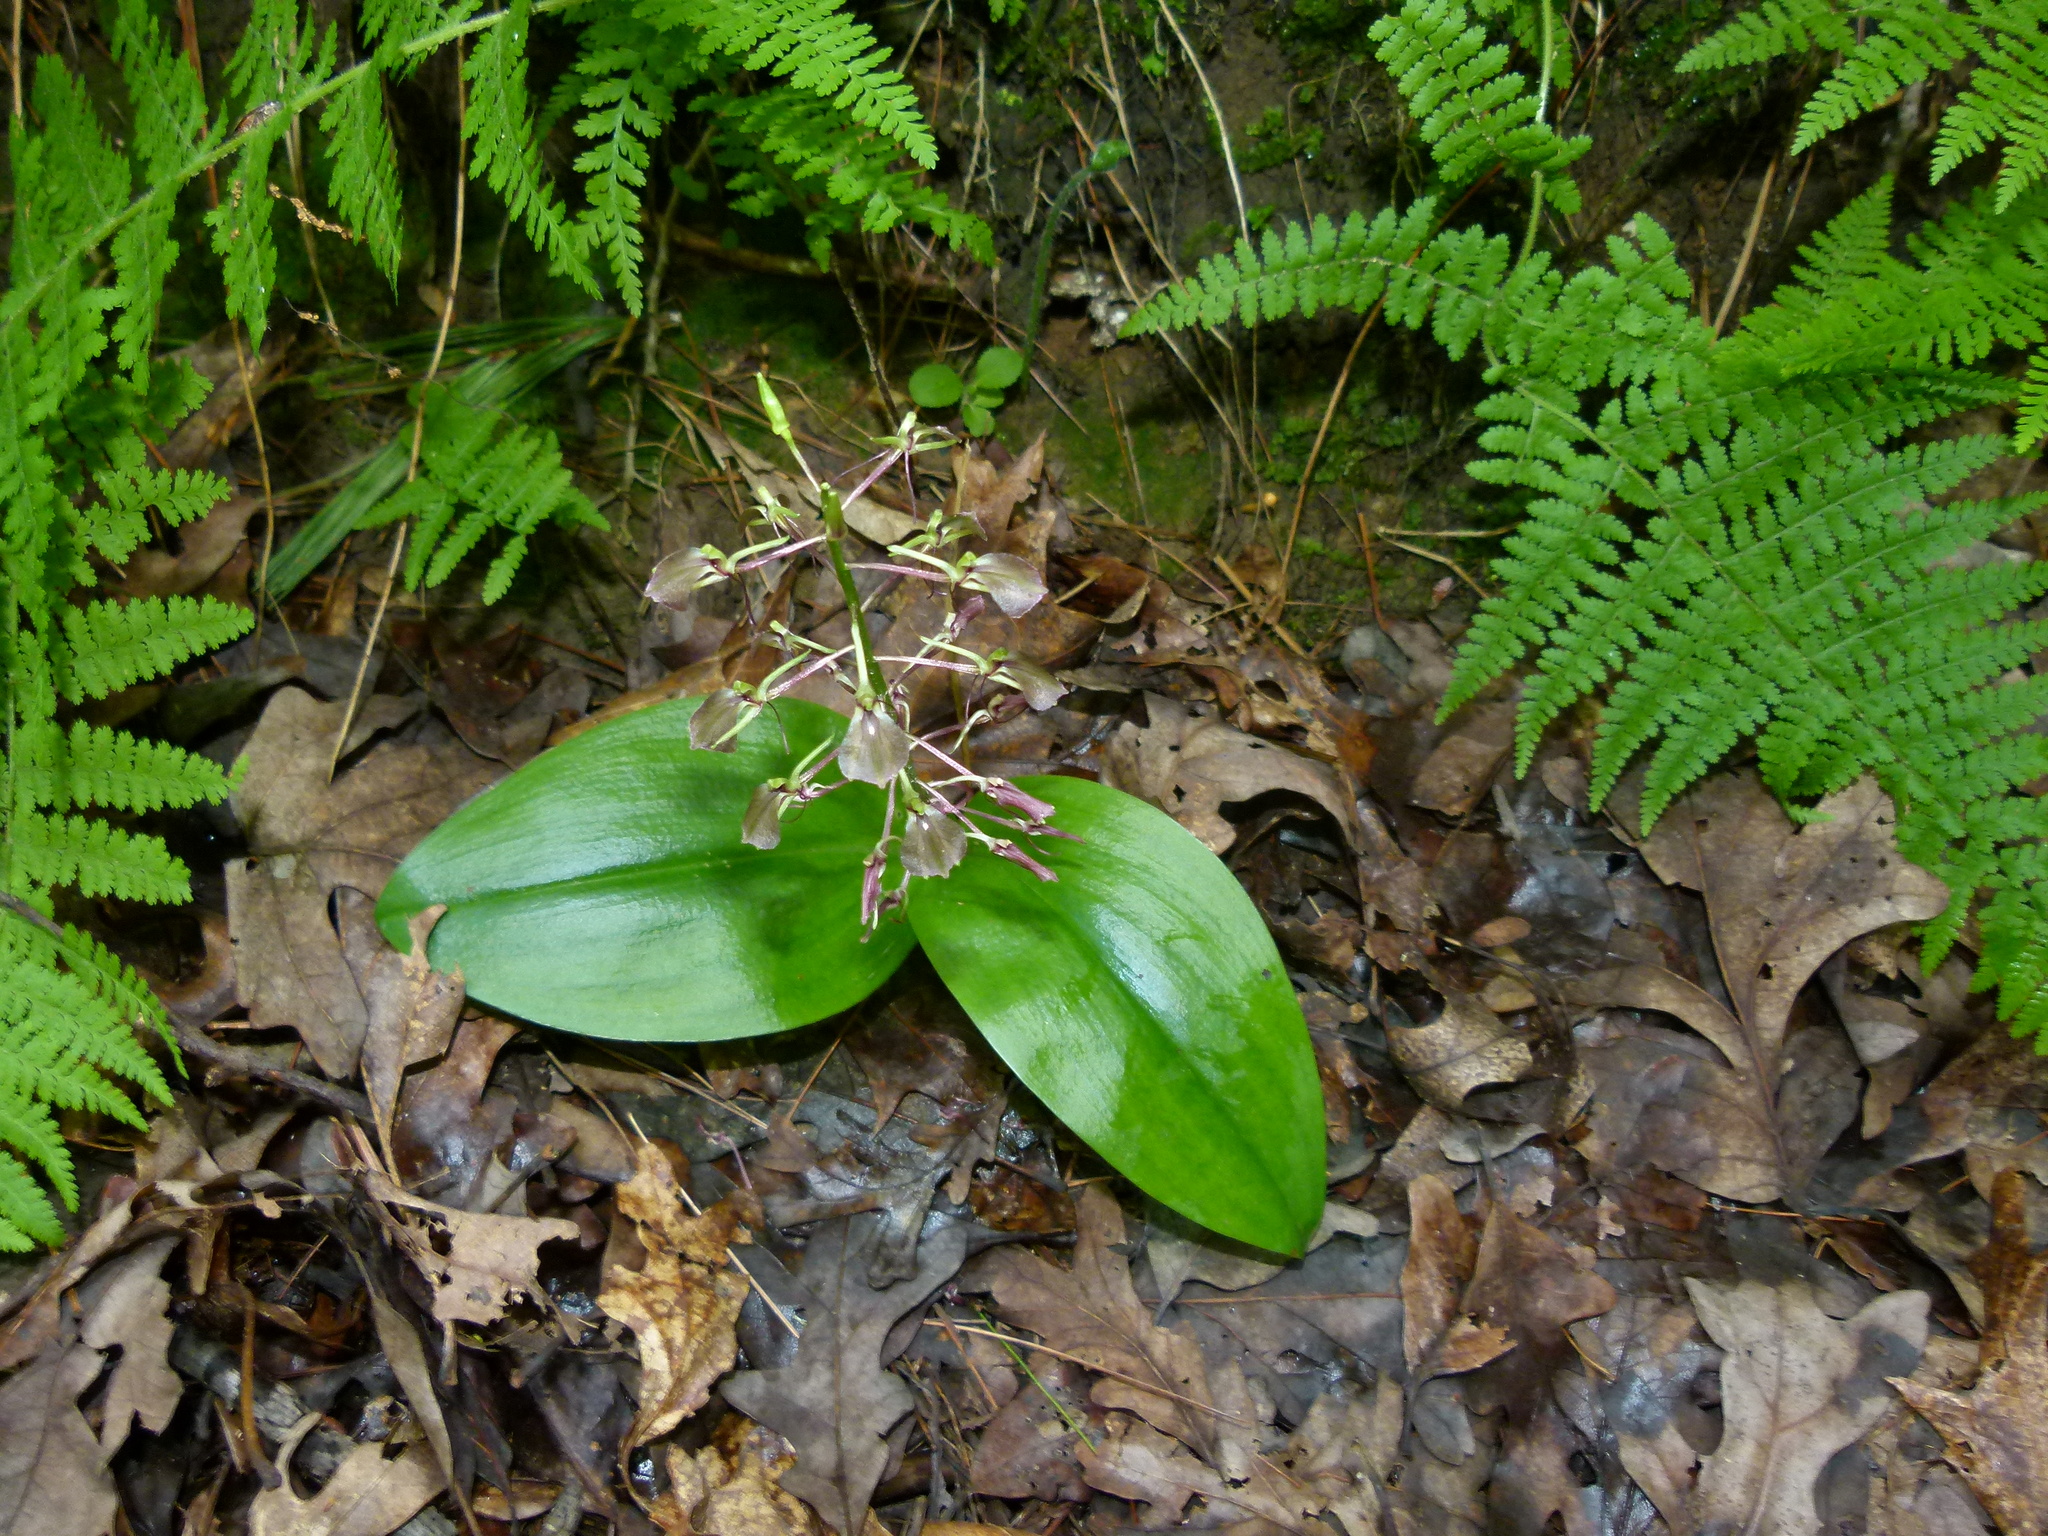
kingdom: Plantae
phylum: Tracheophyta
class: Liliopsida
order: Asparagales
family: Orchidaceae
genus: Liparis
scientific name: Liparis liliifolia
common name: Brown wide-lip orchid
